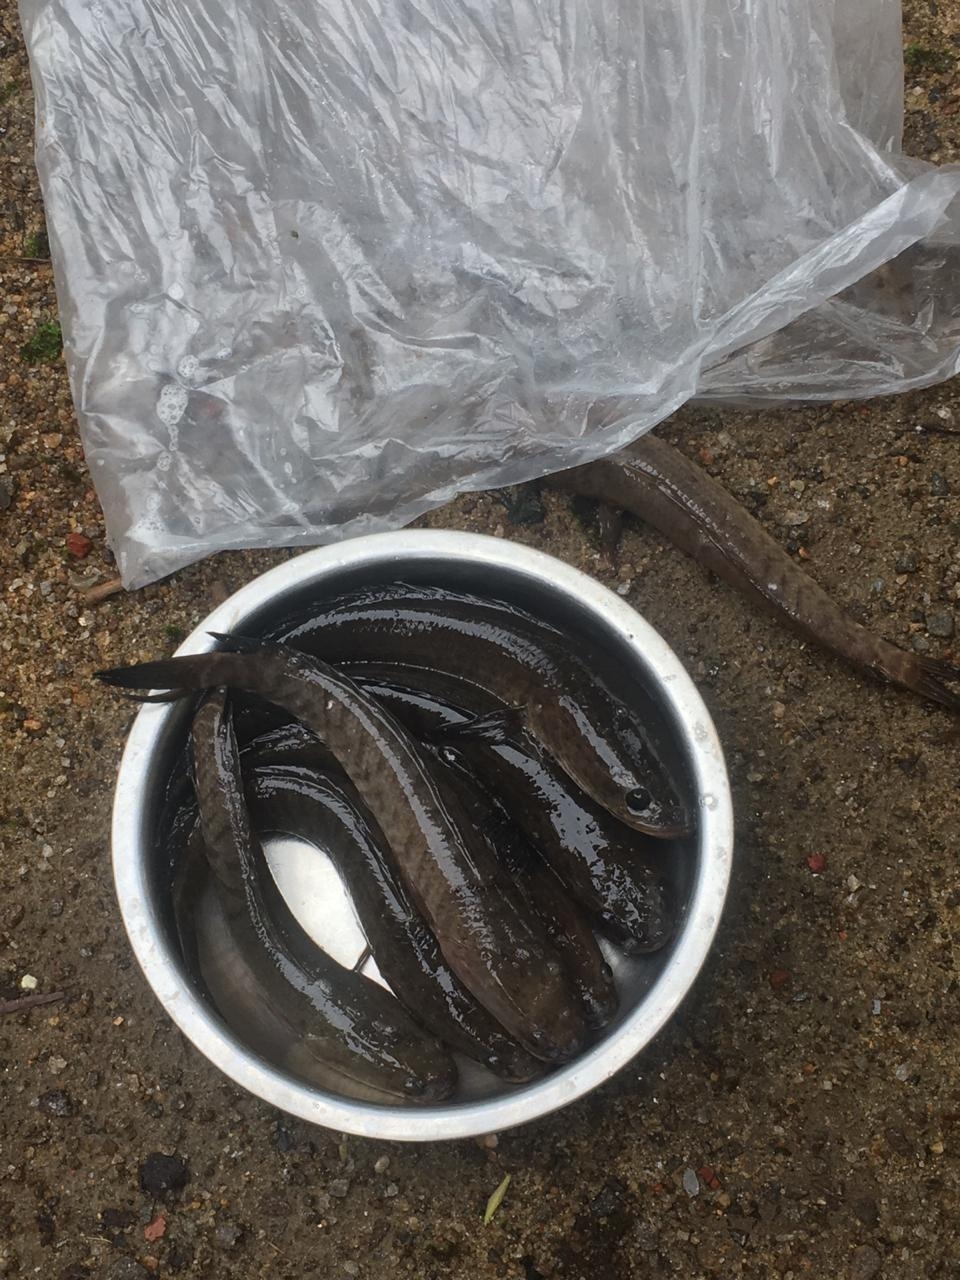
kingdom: Animalia
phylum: Chordata
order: Perciformes
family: Channidae
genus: Channa
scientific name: Channa striata
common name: Striped snakehead
